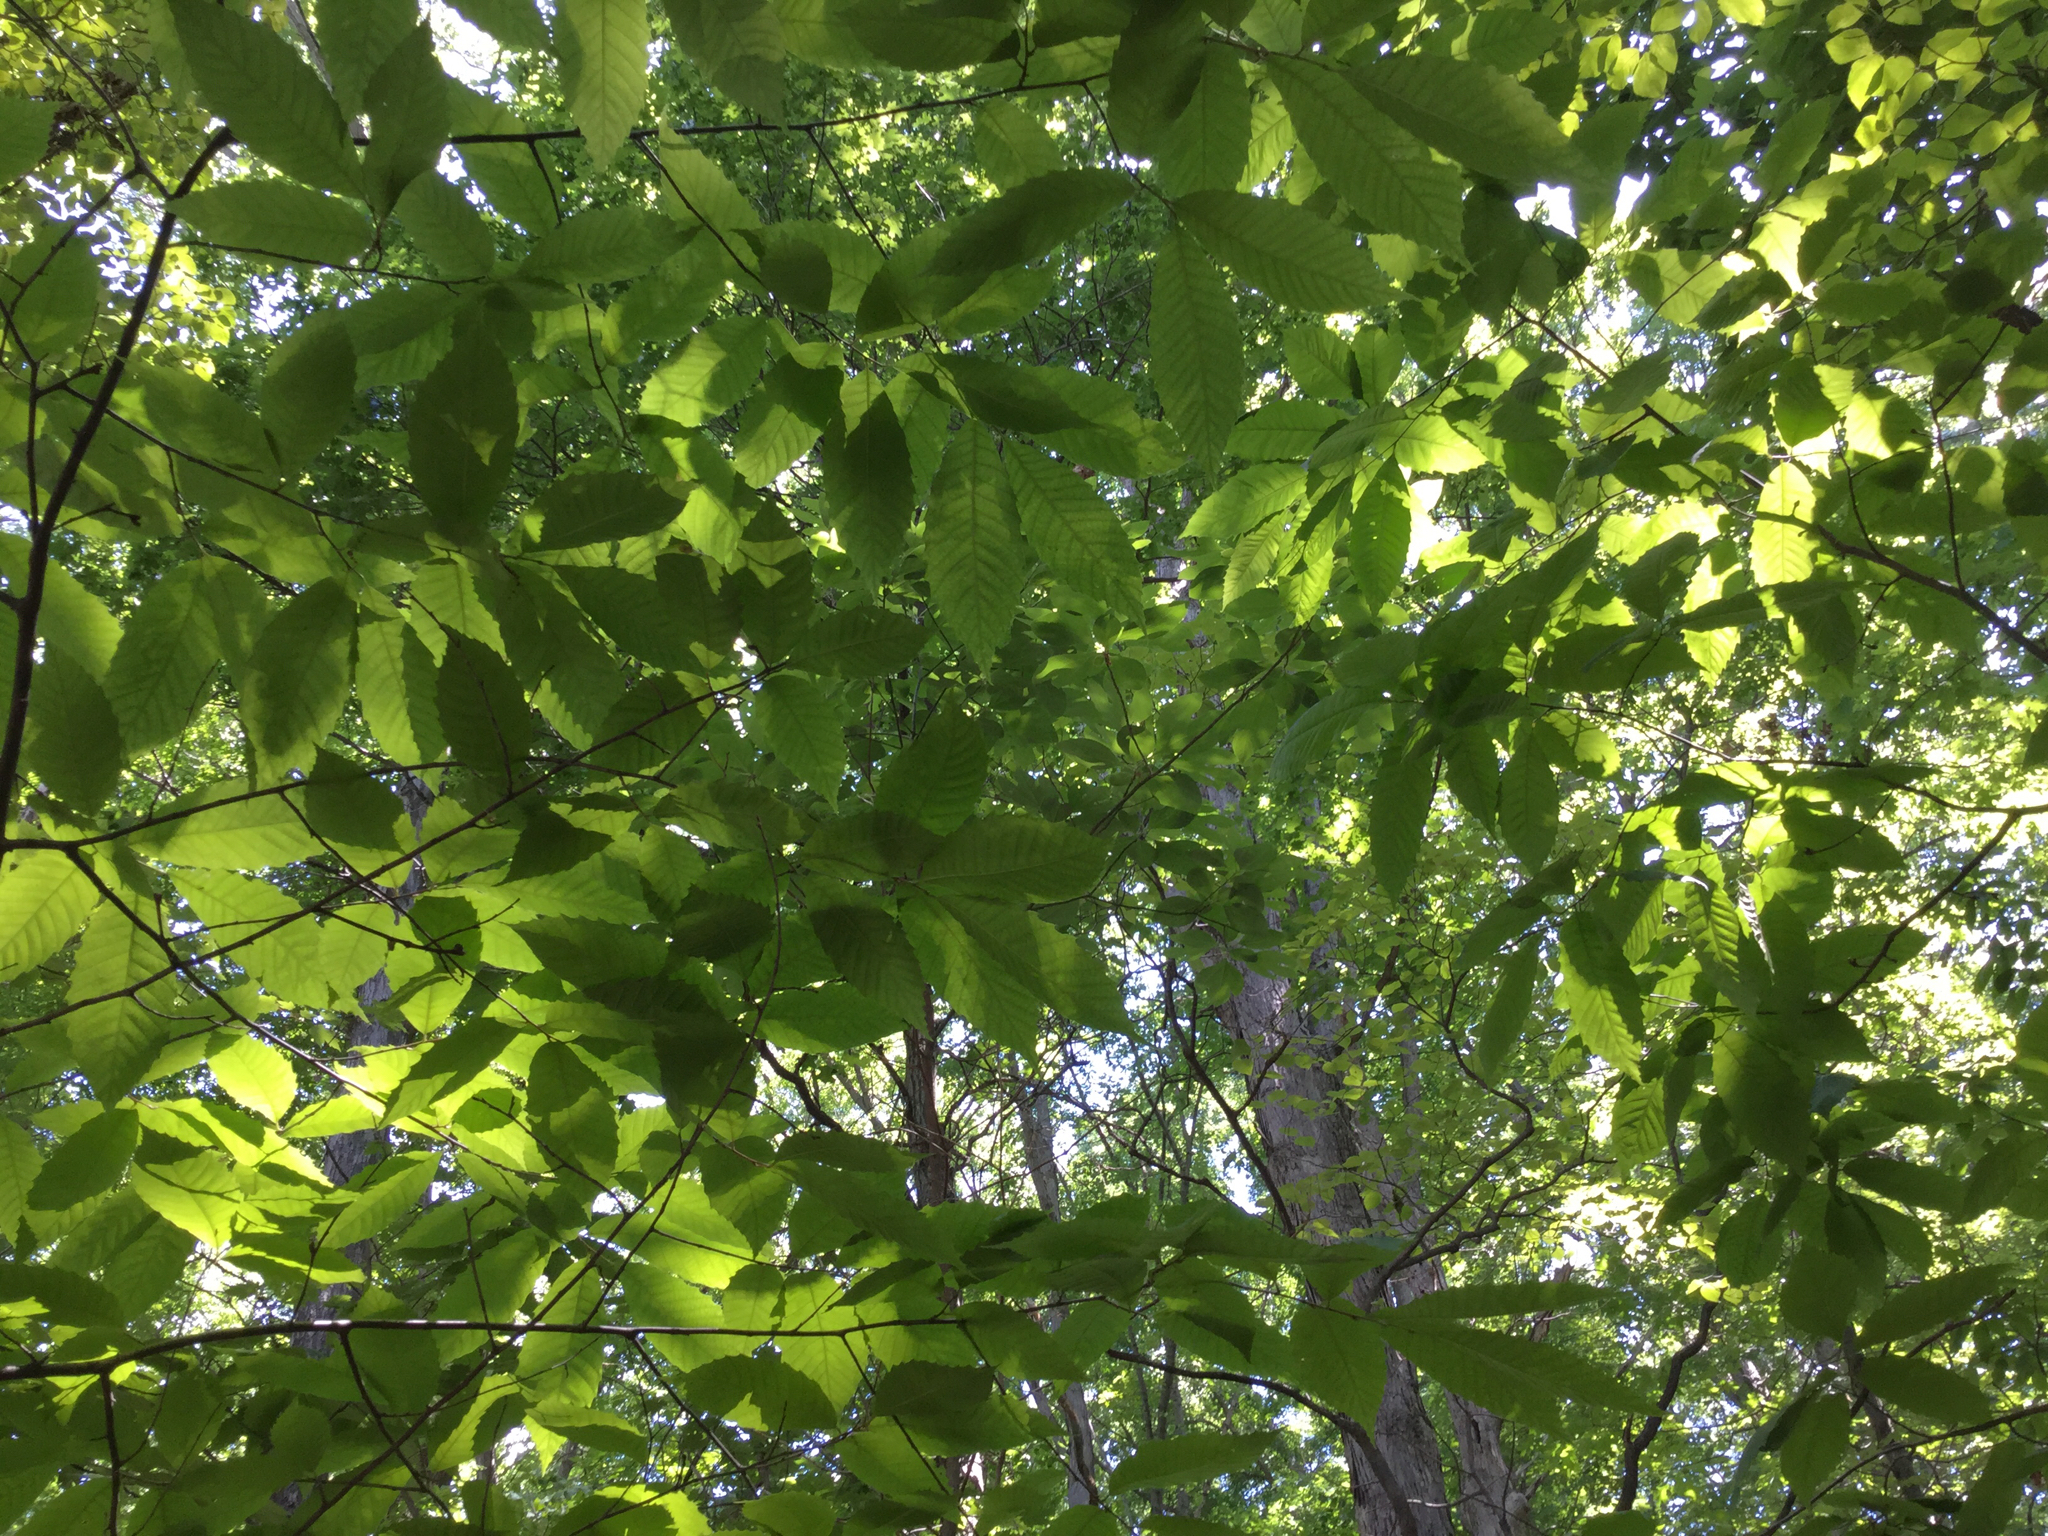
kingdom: Plantae
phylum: Tracheophyta
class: Magnoliopsida
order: Fagales
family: Fagaceae
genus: Castanea
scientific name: Castanea dentata
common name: American chestnut
